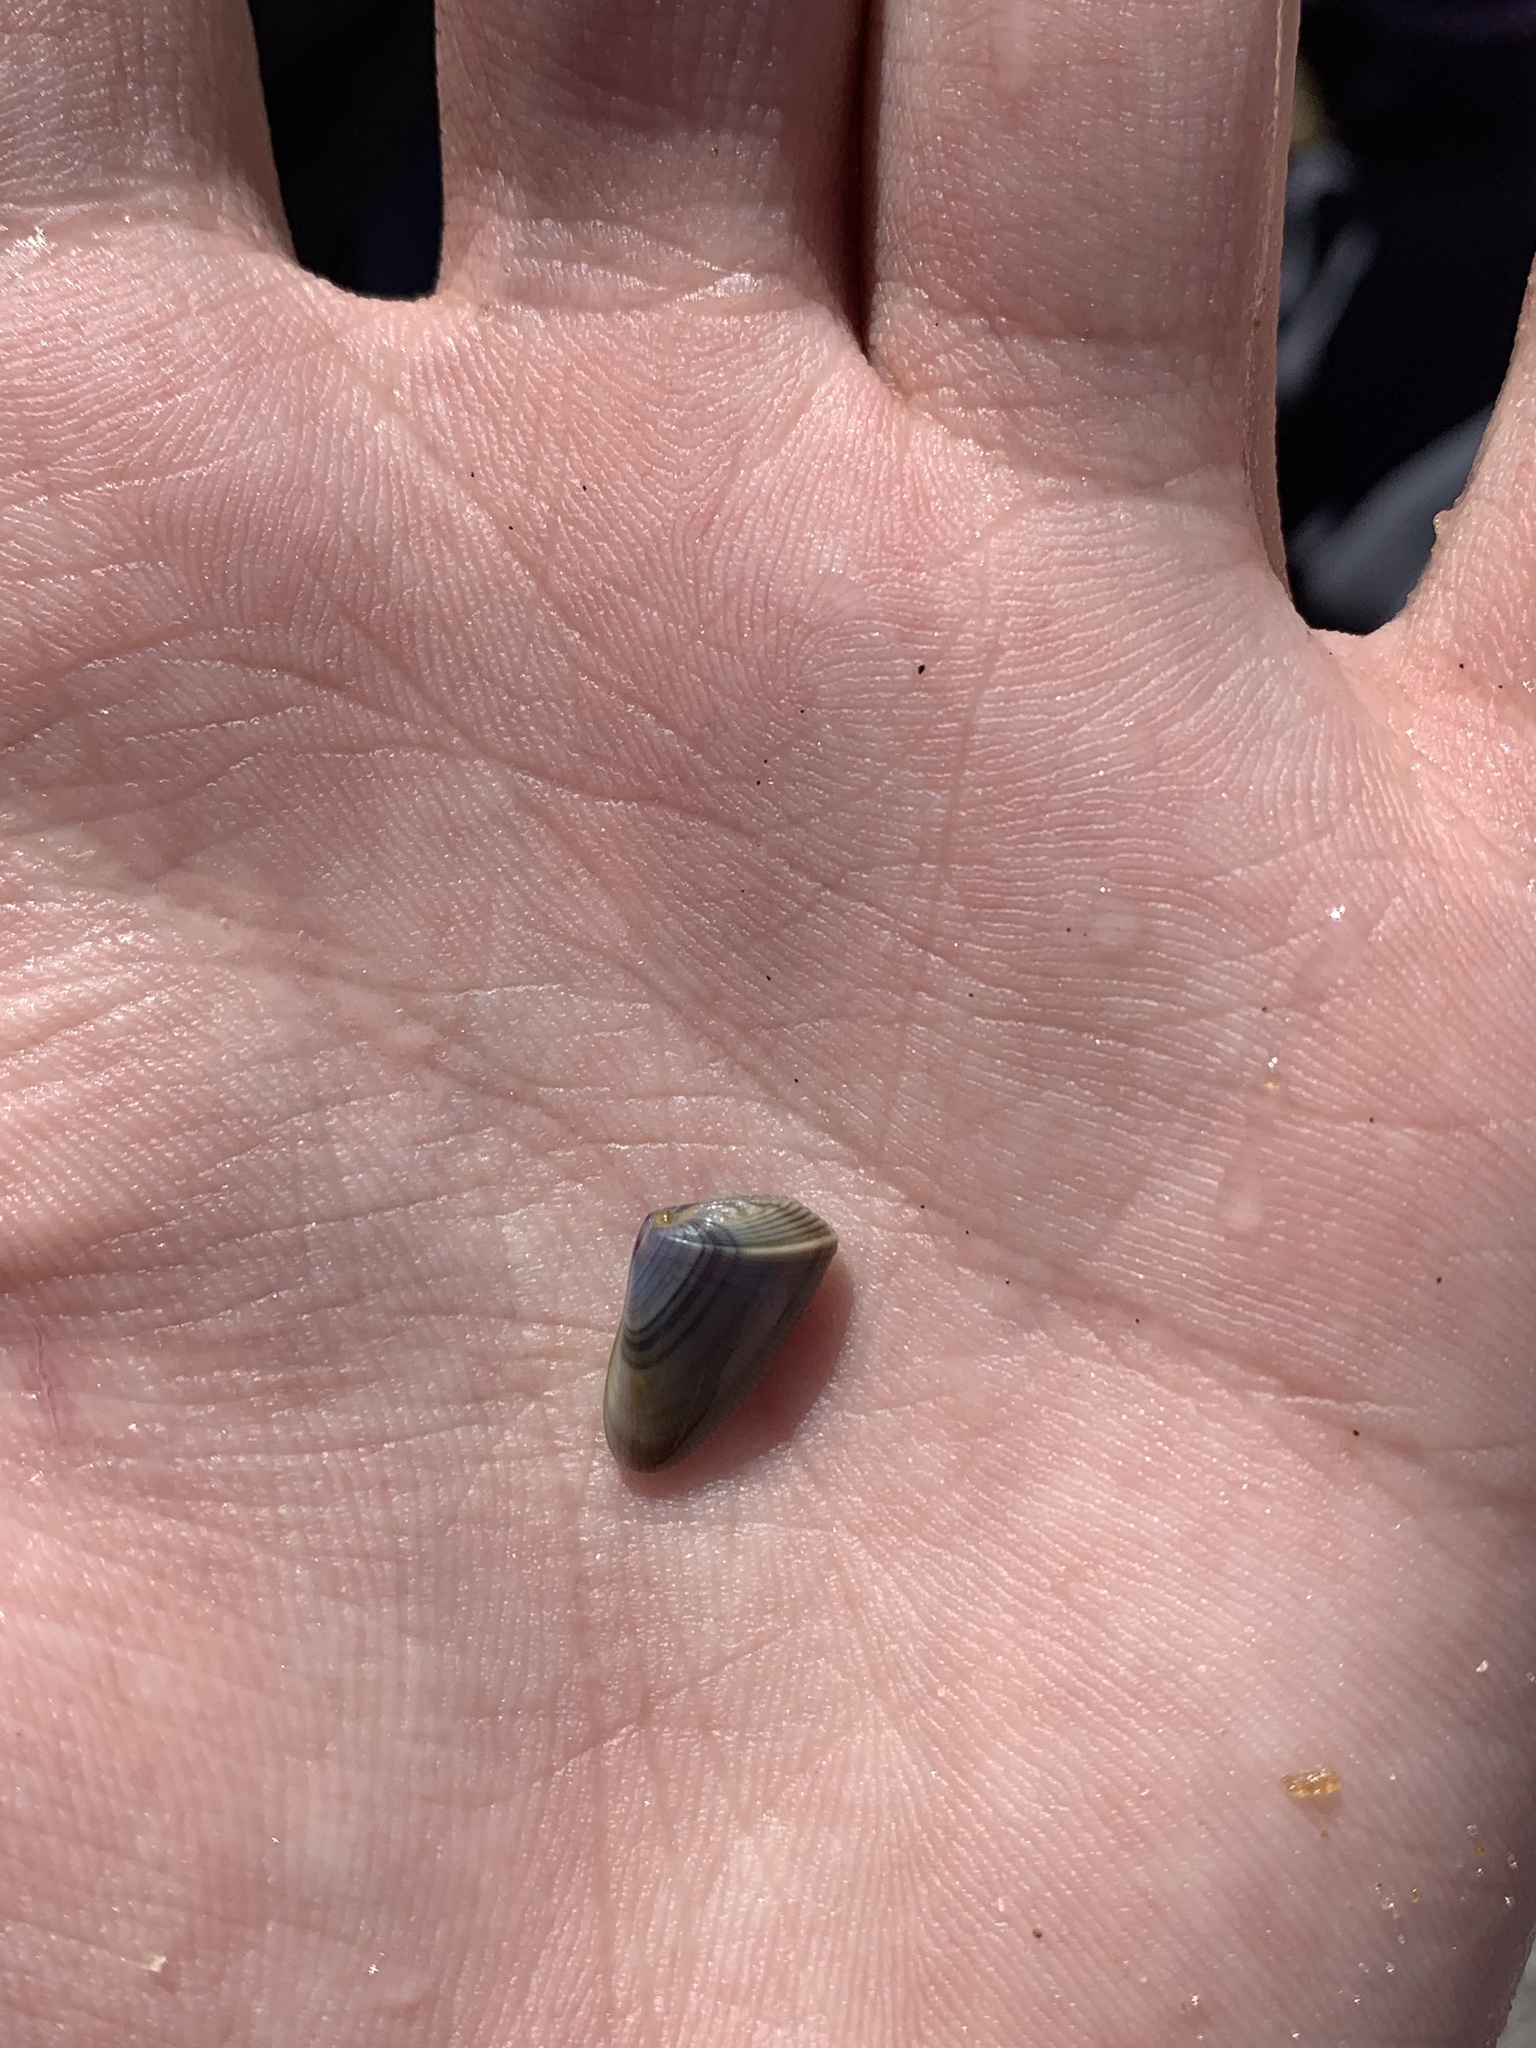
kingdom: Animalia
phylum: Mollusca
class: Bivalvia
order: Cardiida
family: Donacidae
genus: Donax
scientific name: Donax hanleyanus
